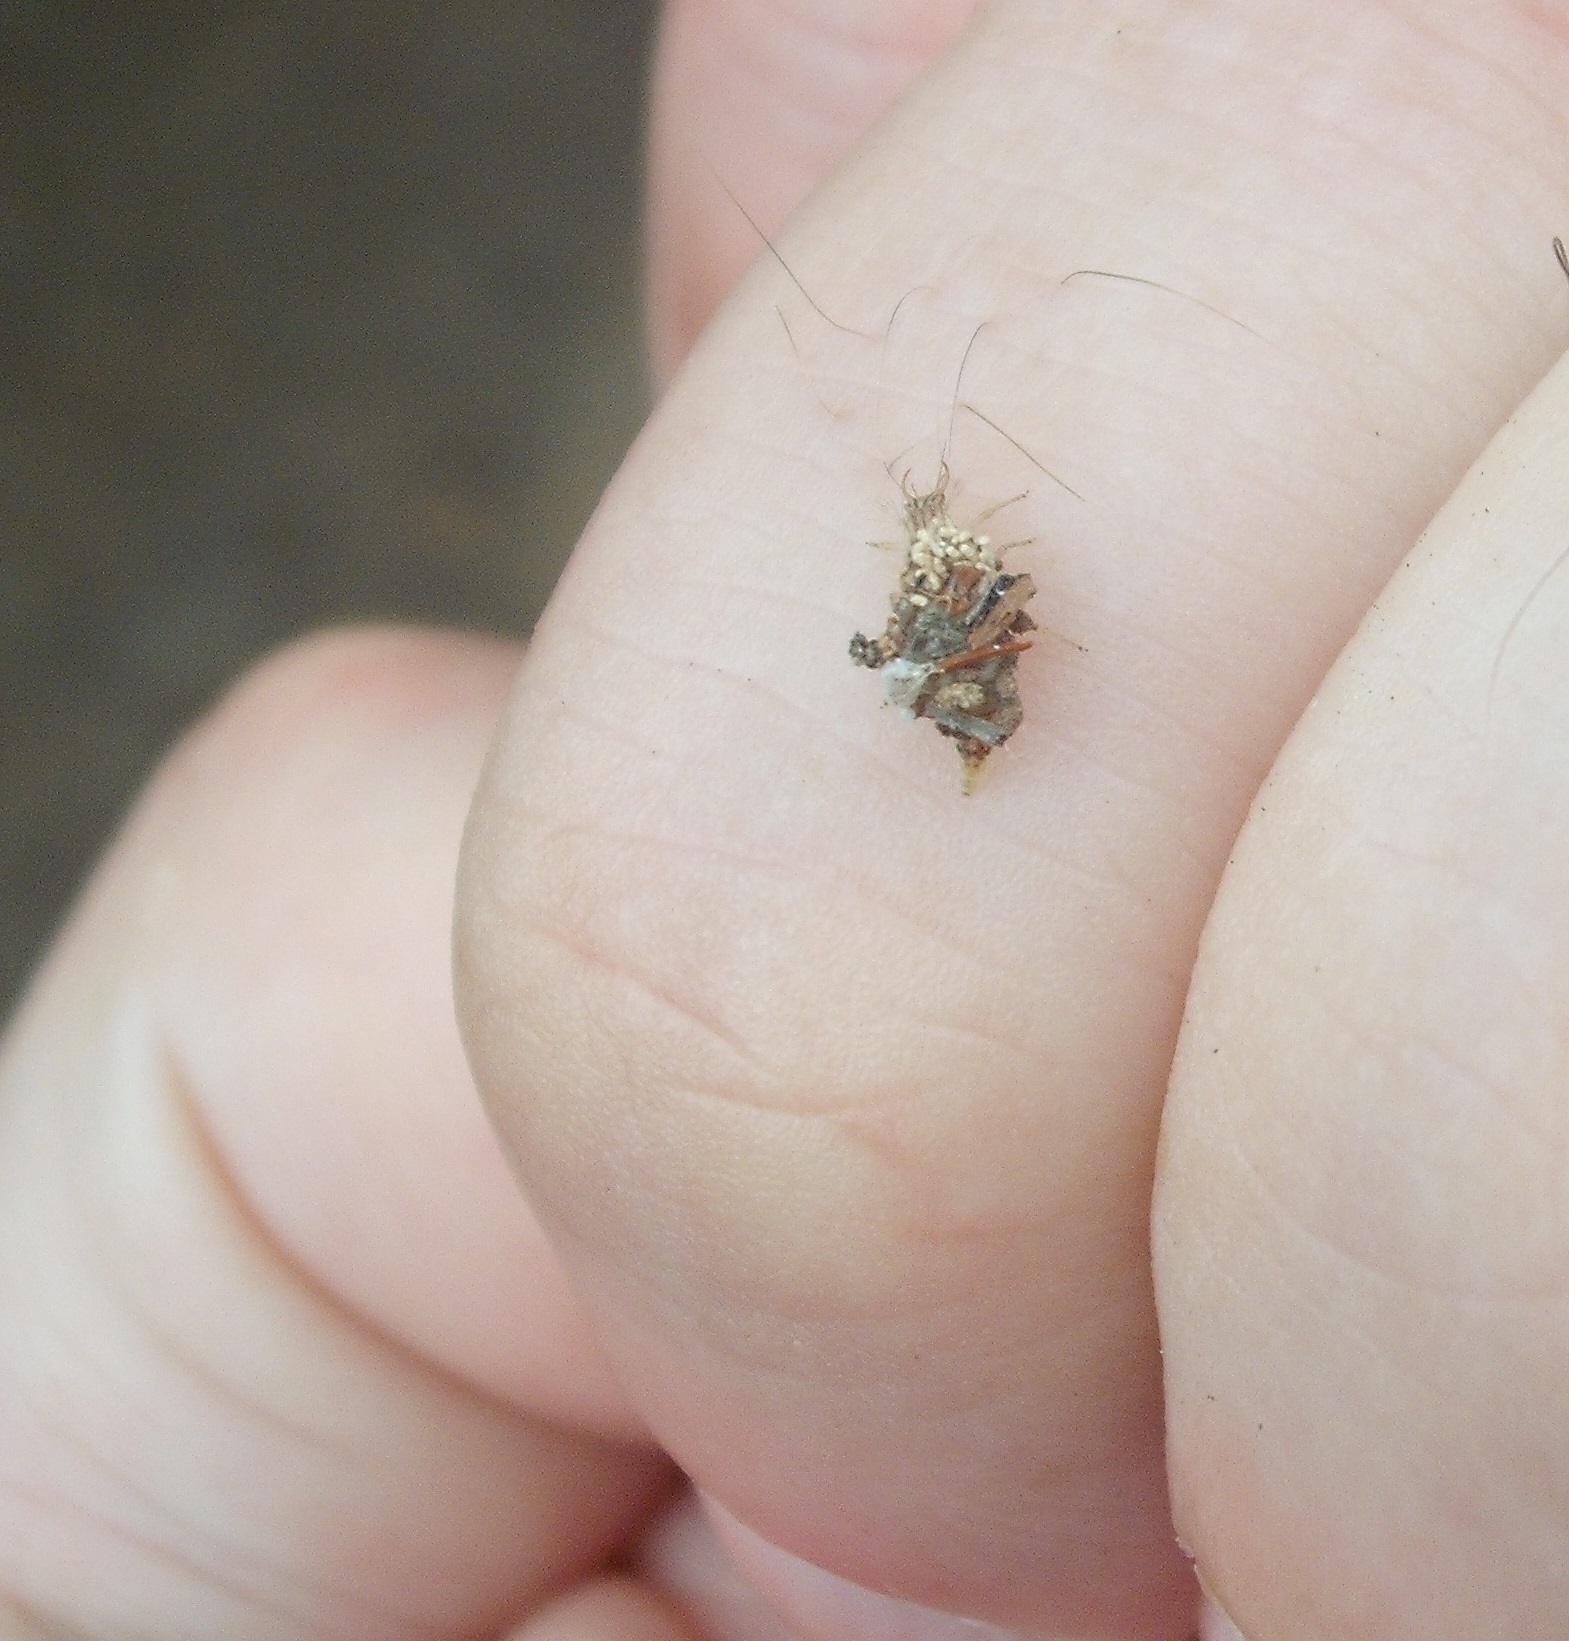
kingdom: Animalia
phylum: Arthropoda
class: Insecta
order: Neuroptera
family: Chrysopidae
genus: Mallada
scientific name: Mallada basalis
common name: Green lacewing
